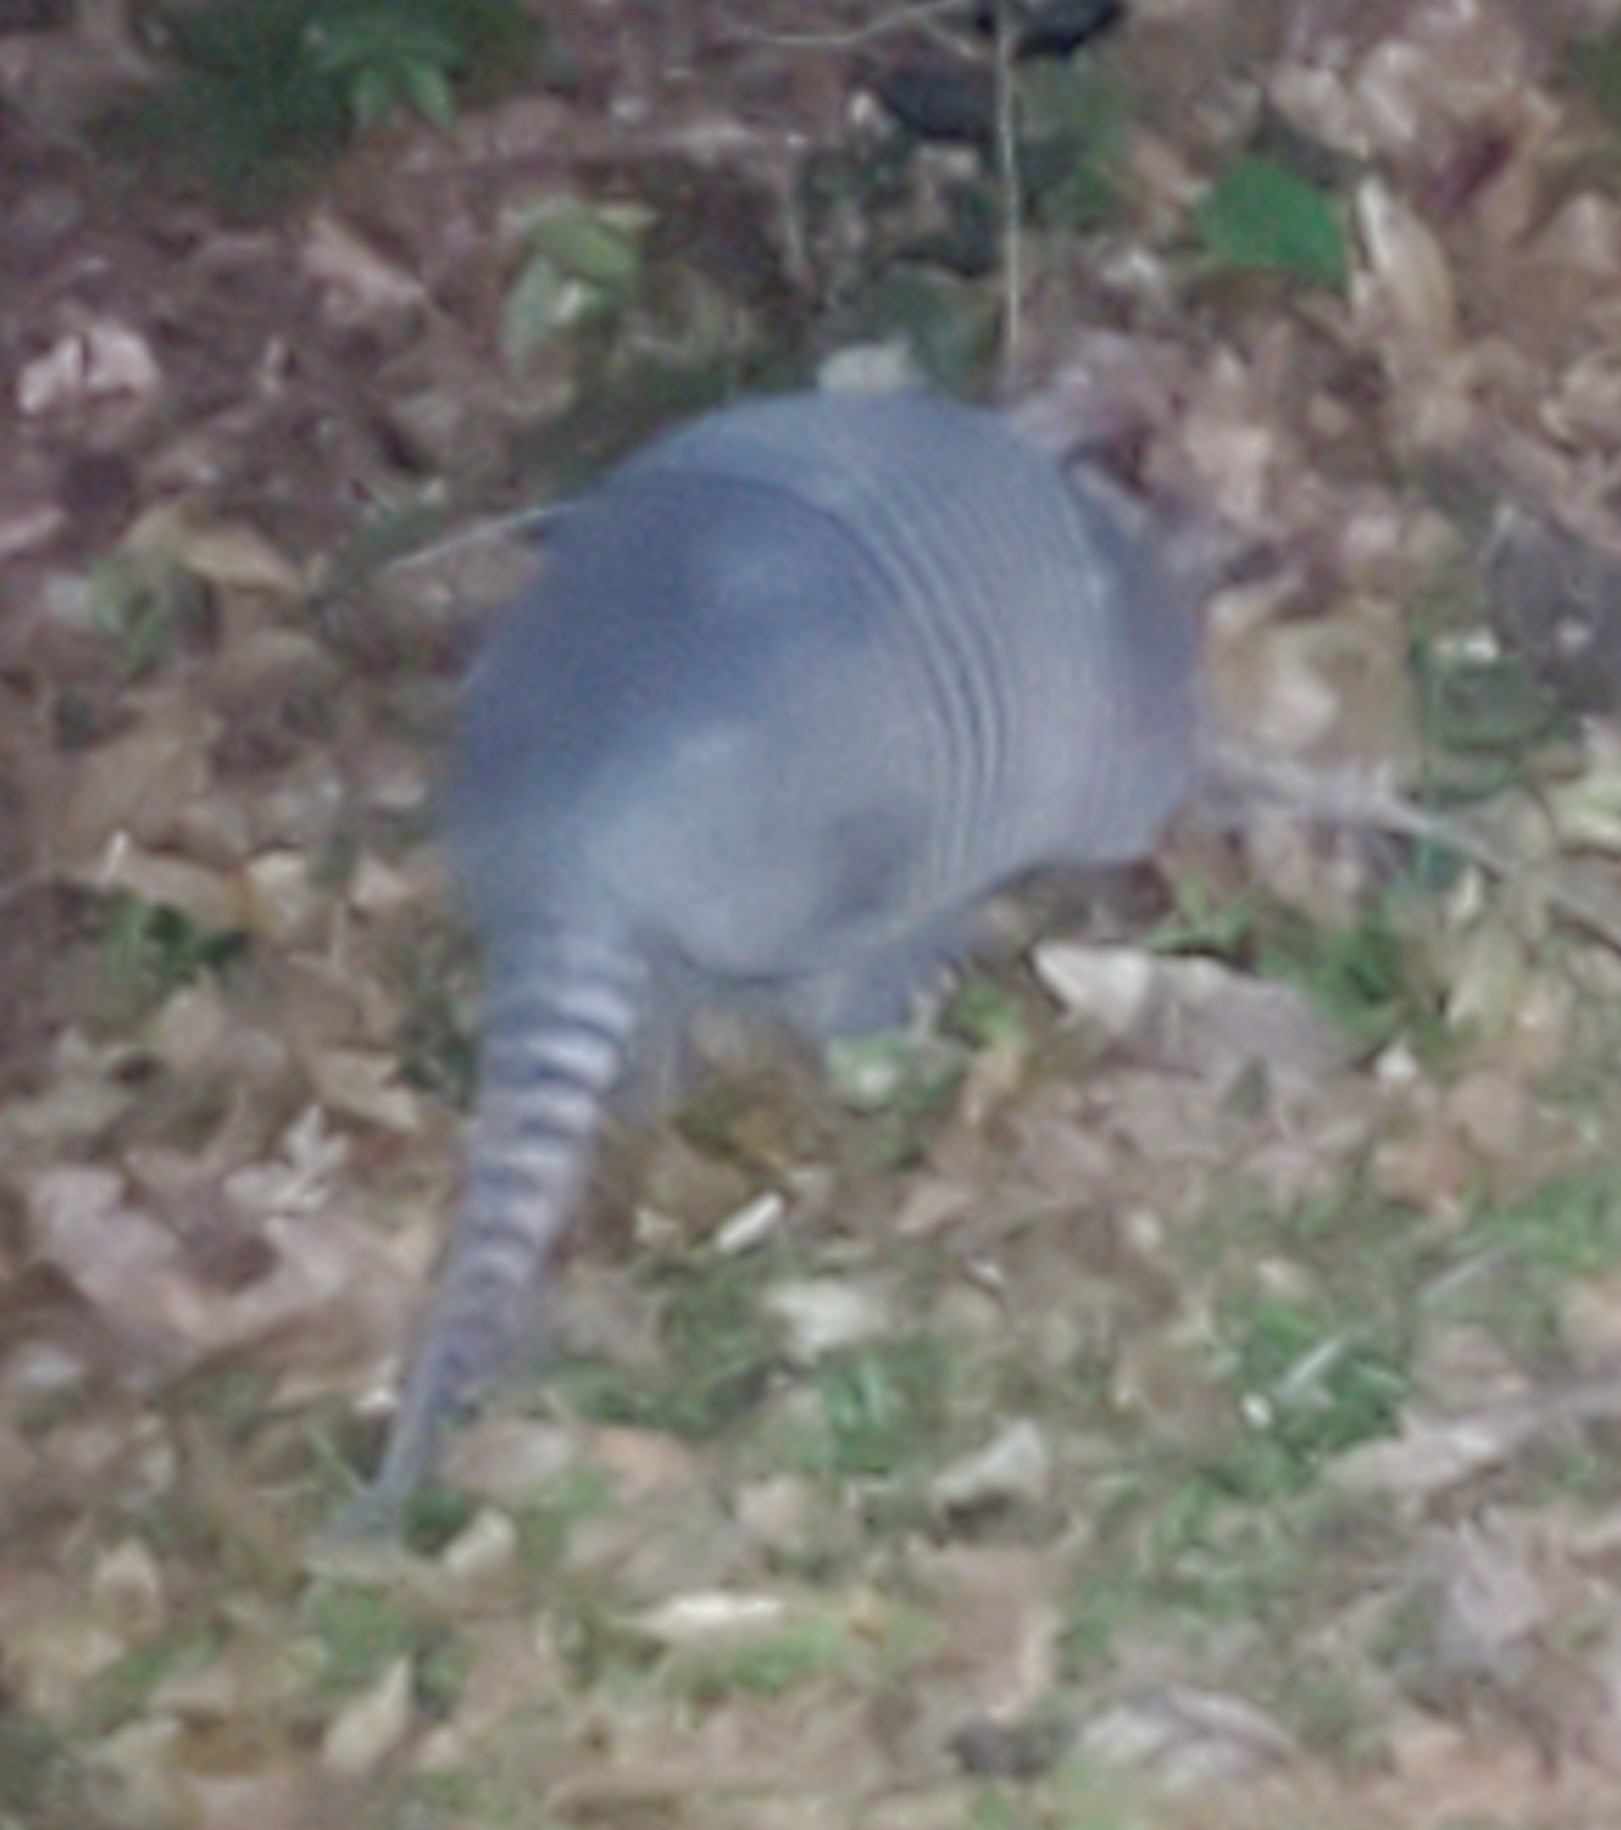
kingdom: Animalia
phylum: Chordata
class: Mammalia
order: Cingulata
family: Dasypodidae
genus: Dasypus
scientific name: Dasypus novemcinctus
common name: Nine-banded armadillo
